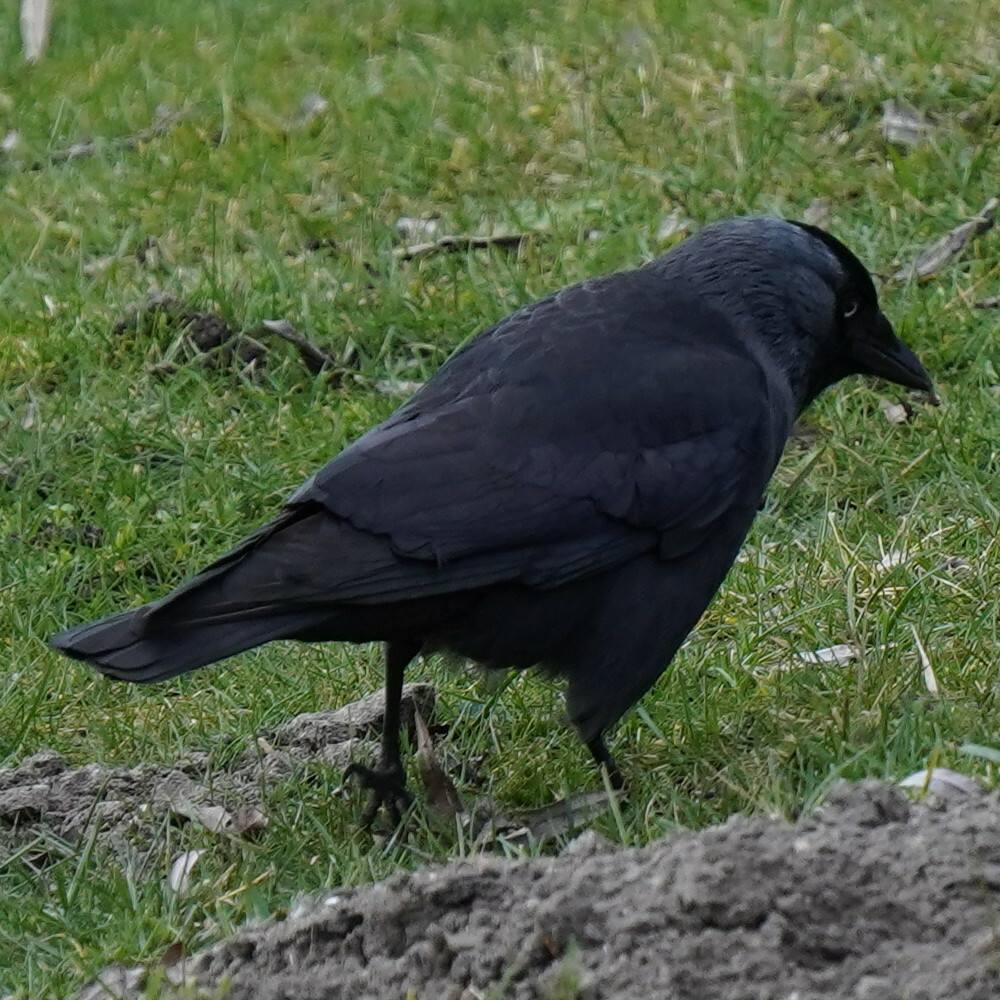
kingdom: Animalia
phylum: Chordata
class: Aves
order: Passeriformes
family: Corvidae
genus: Coloeus
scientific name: Coloeus monedula
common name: Western jackdaw
